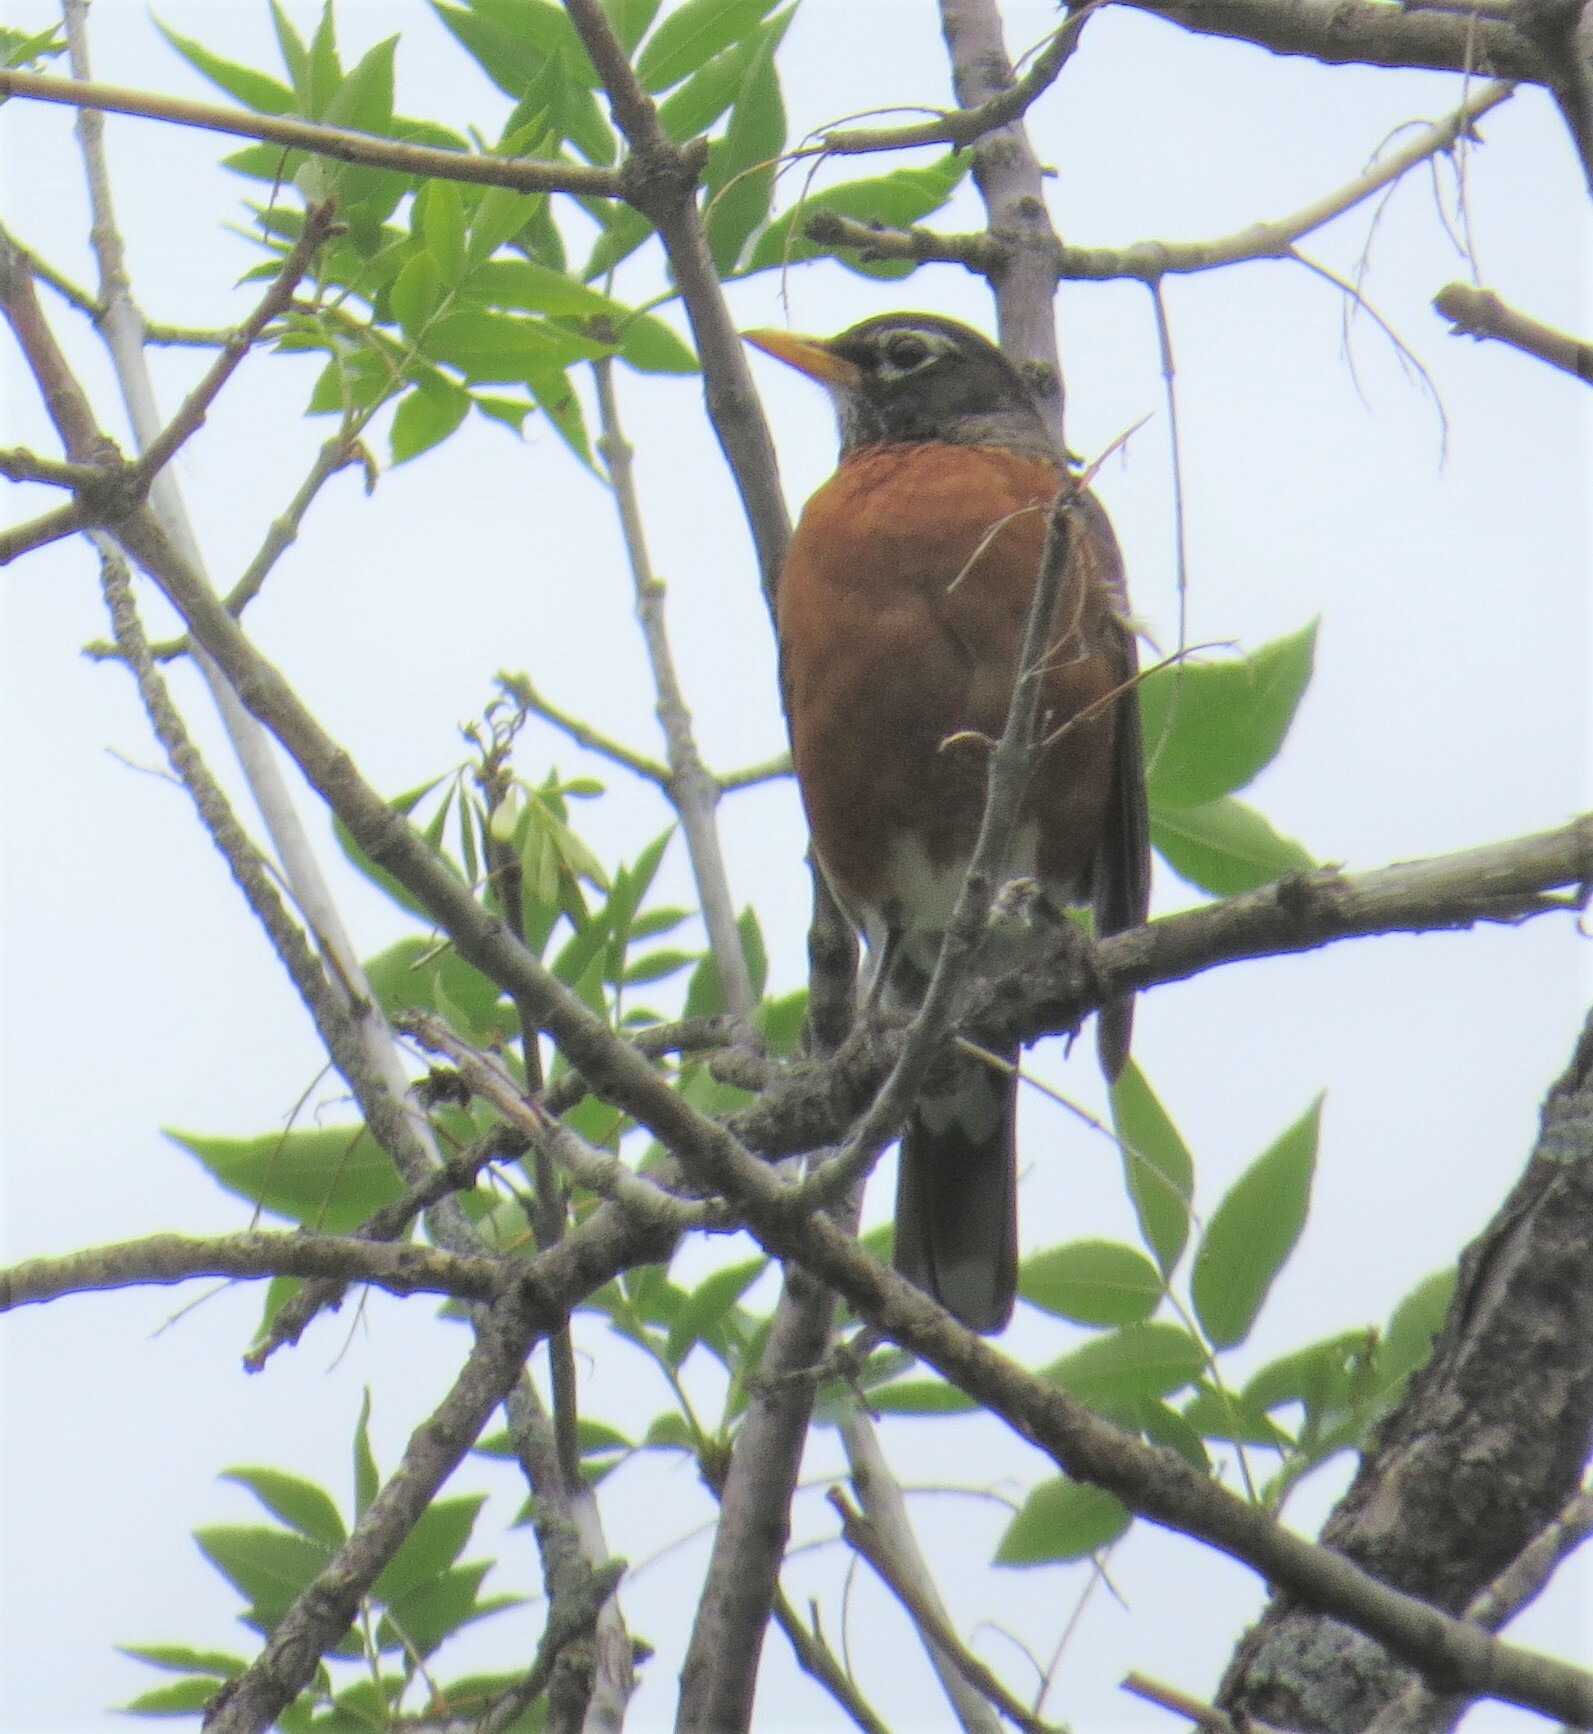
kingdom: Animalia
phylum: Chordata
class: Aves
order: Passeriformes
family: Turdidae
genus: Turdus
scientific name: Turdus migratorius
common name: American robin
